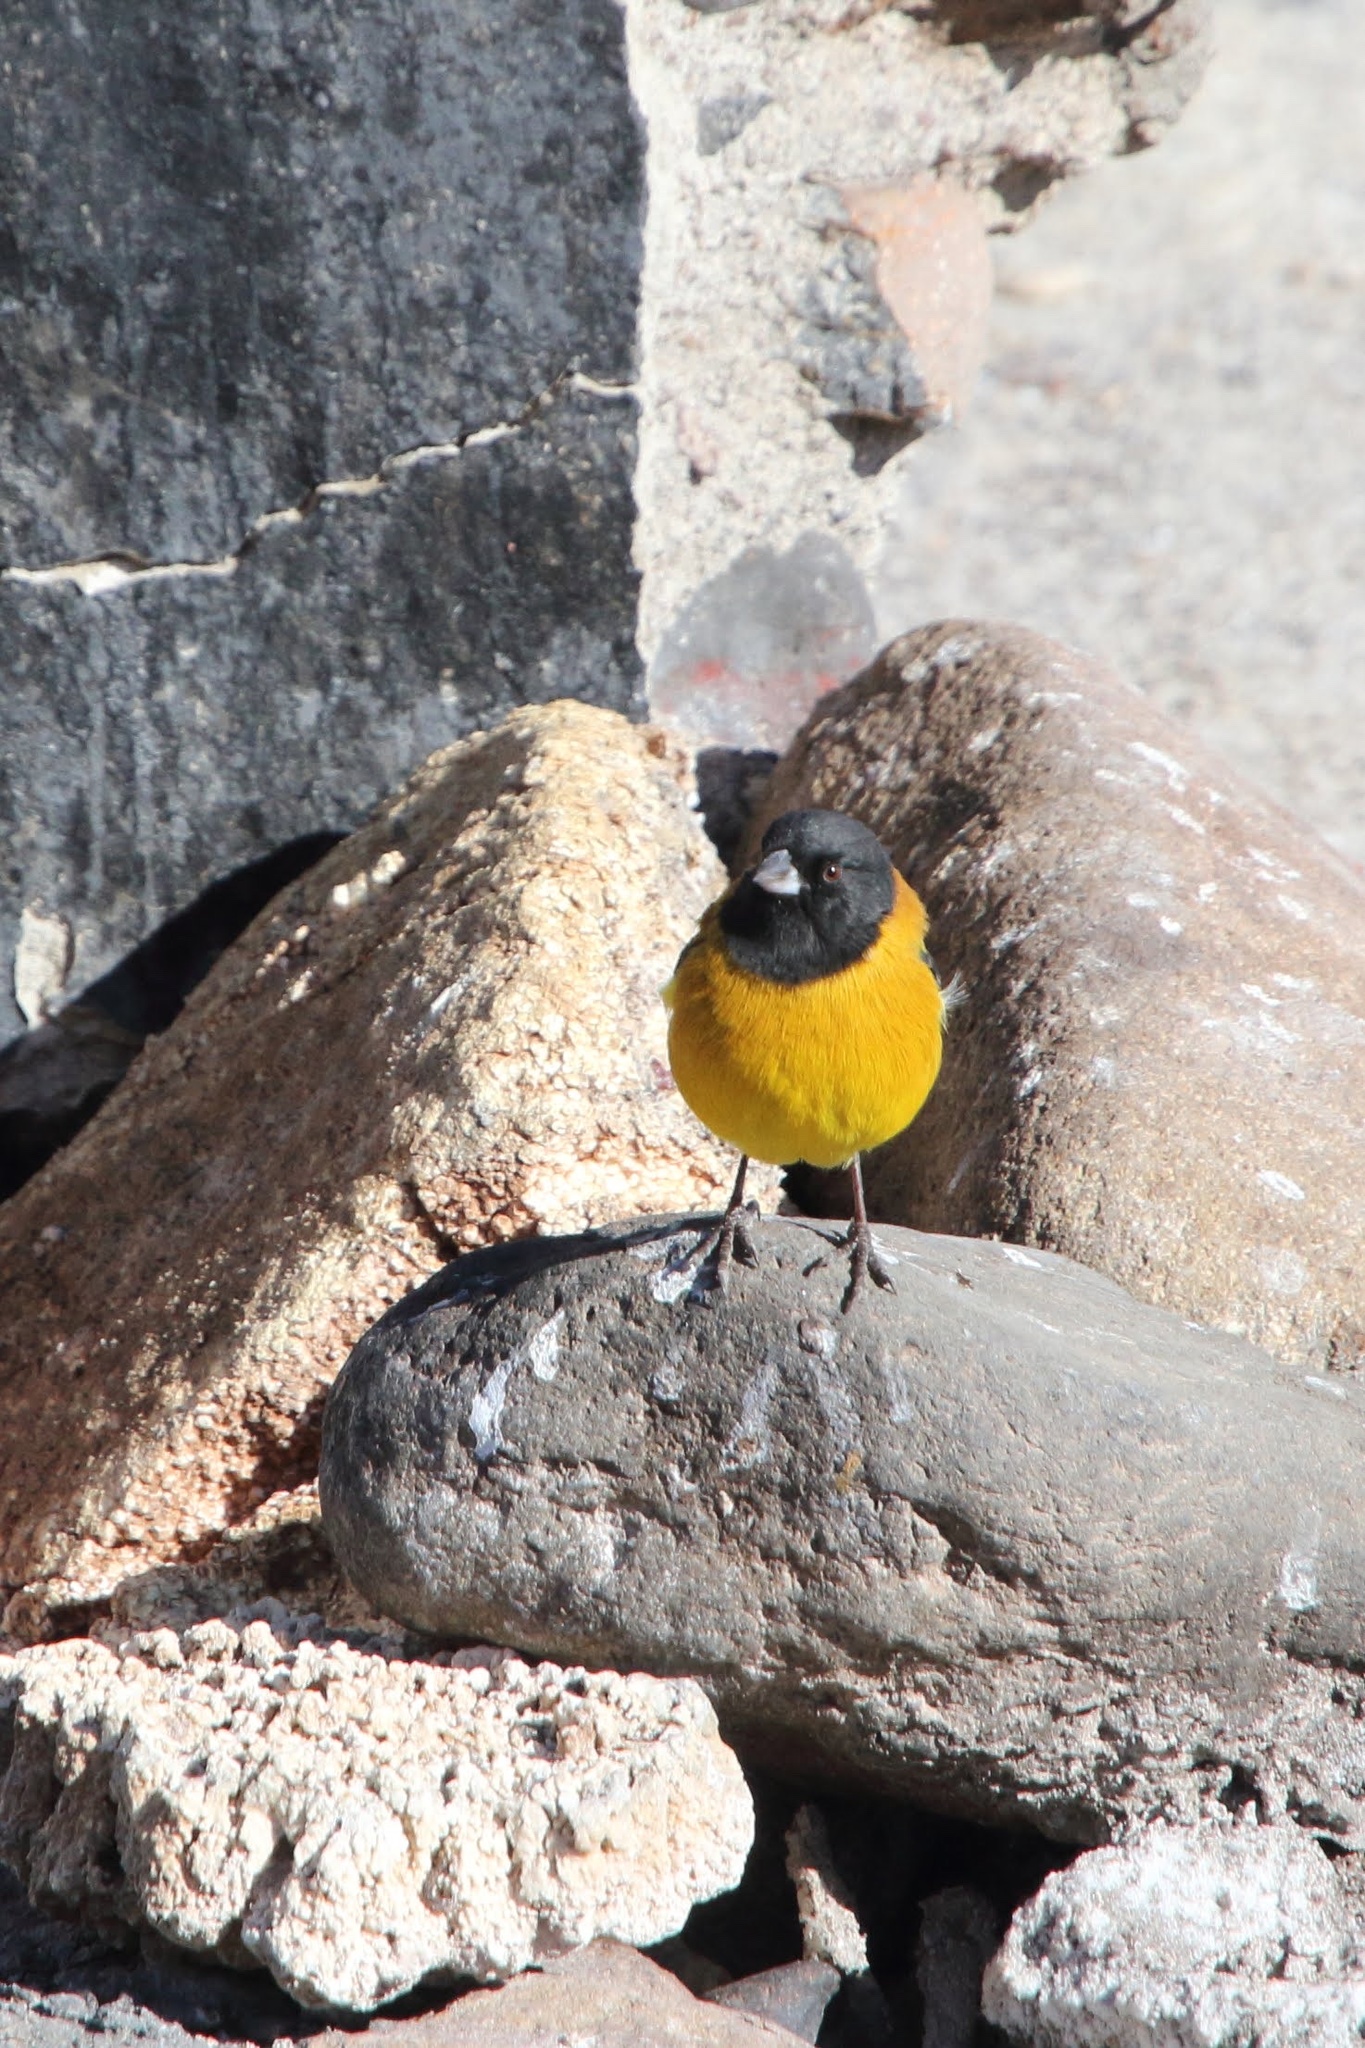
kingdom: Animalia
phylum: Chordata
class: Aves
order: Passeriformes
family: Thraupidae
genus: Phrygilus
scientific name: Phrygilus atriceps
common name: Black-hooded sierra finch
